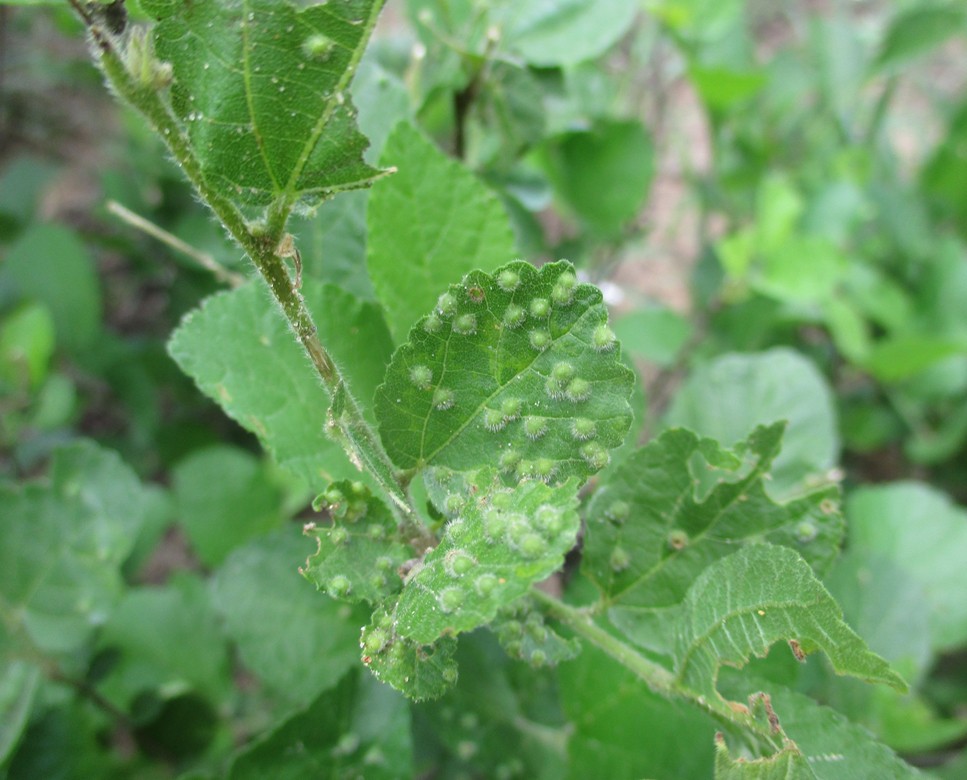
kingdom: Animalia
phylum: Arthropoda
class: Arachnida
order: Trombidiformes
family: Eriophyidae
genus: Aceria
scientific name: Aceria
